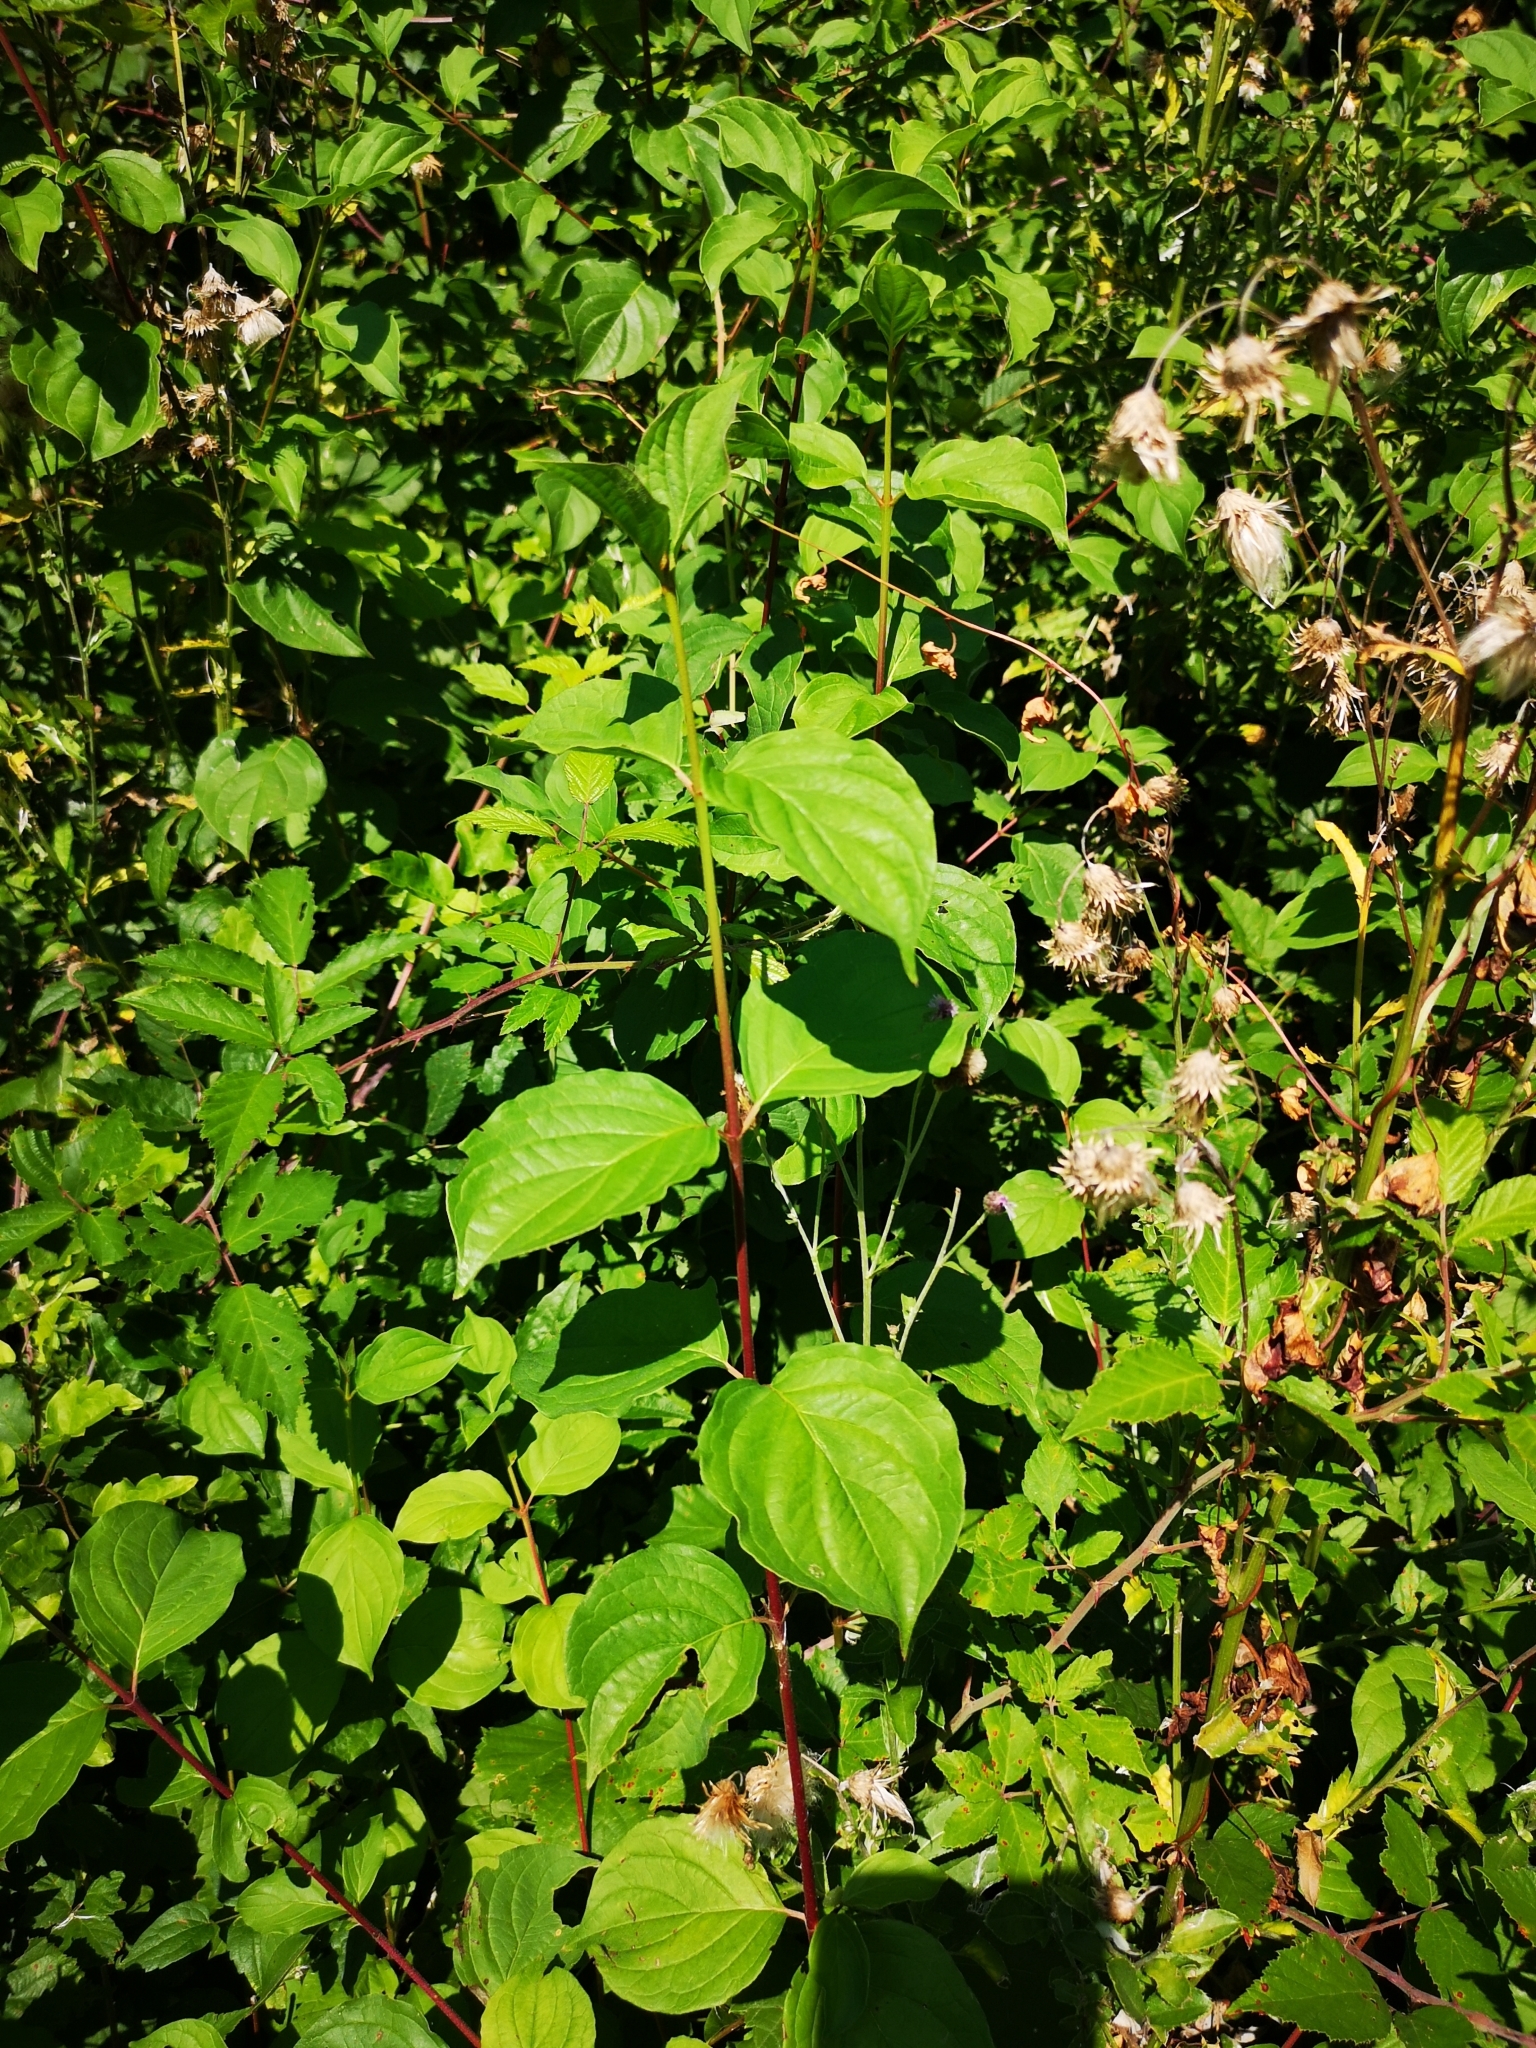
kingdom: Plantae
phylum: Tracheophyta
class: Magnoliopsida
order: Cornales
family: Cornaceae
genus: Cornus
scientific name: Cornus sanguinea
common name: Dogwood
